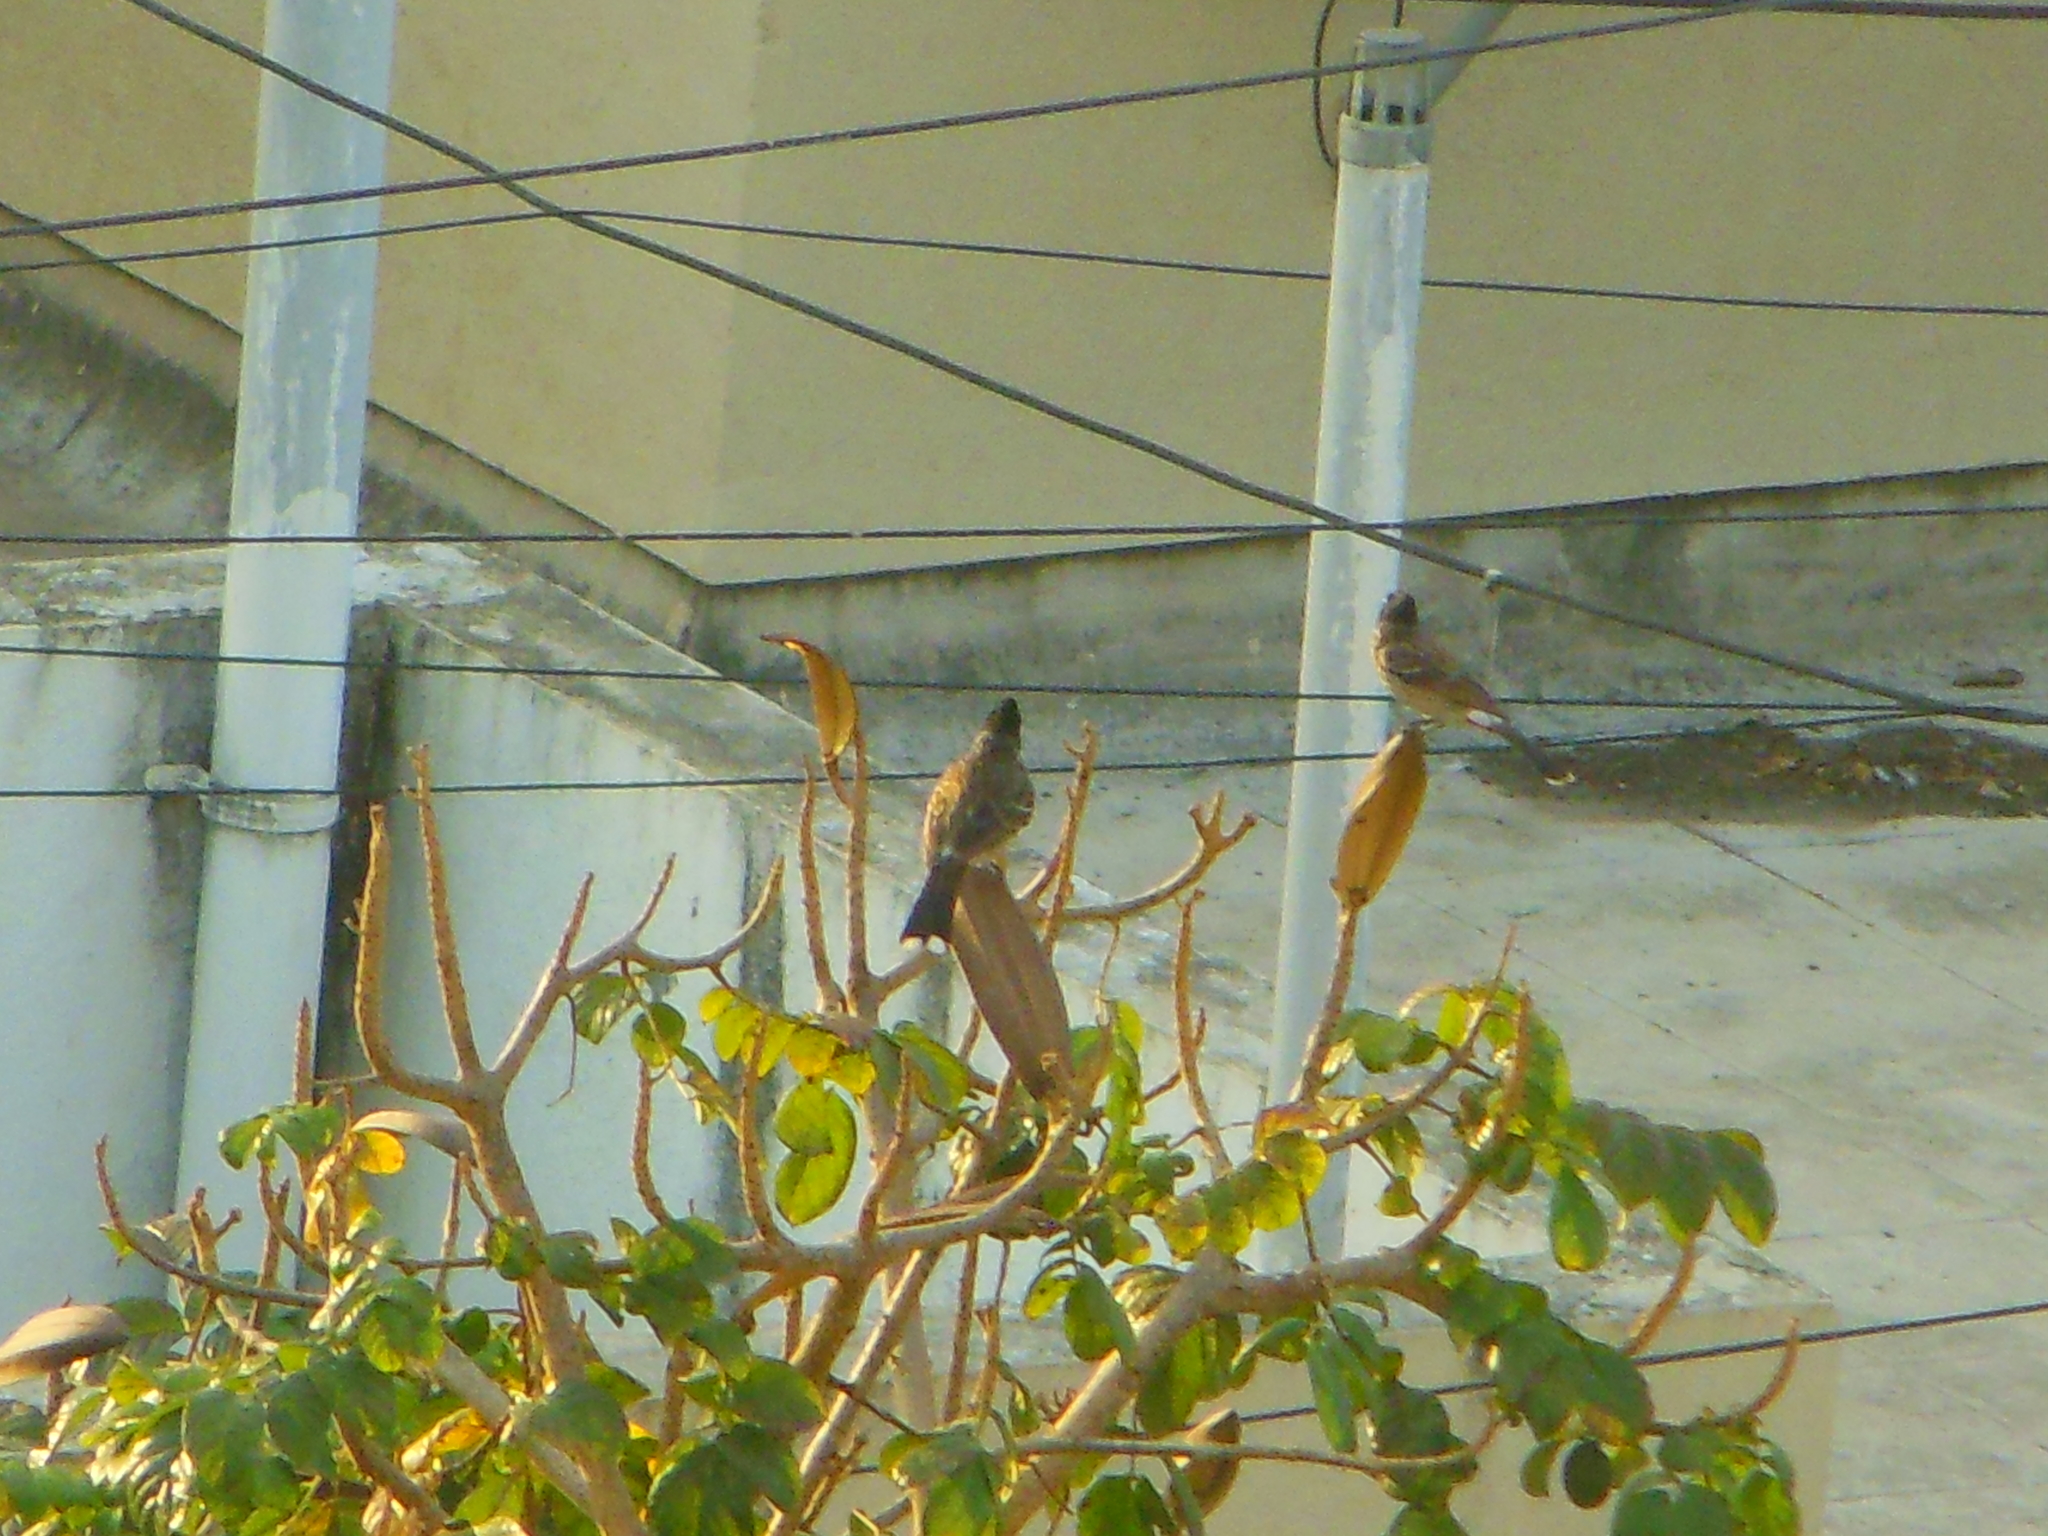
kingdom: Animalia
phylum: Chordata
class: Aves
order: Passeriformes
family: Pycnonotidae
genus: Pycnonotus
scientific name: Pycnonotus cafer
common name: Red-vented bulbul
